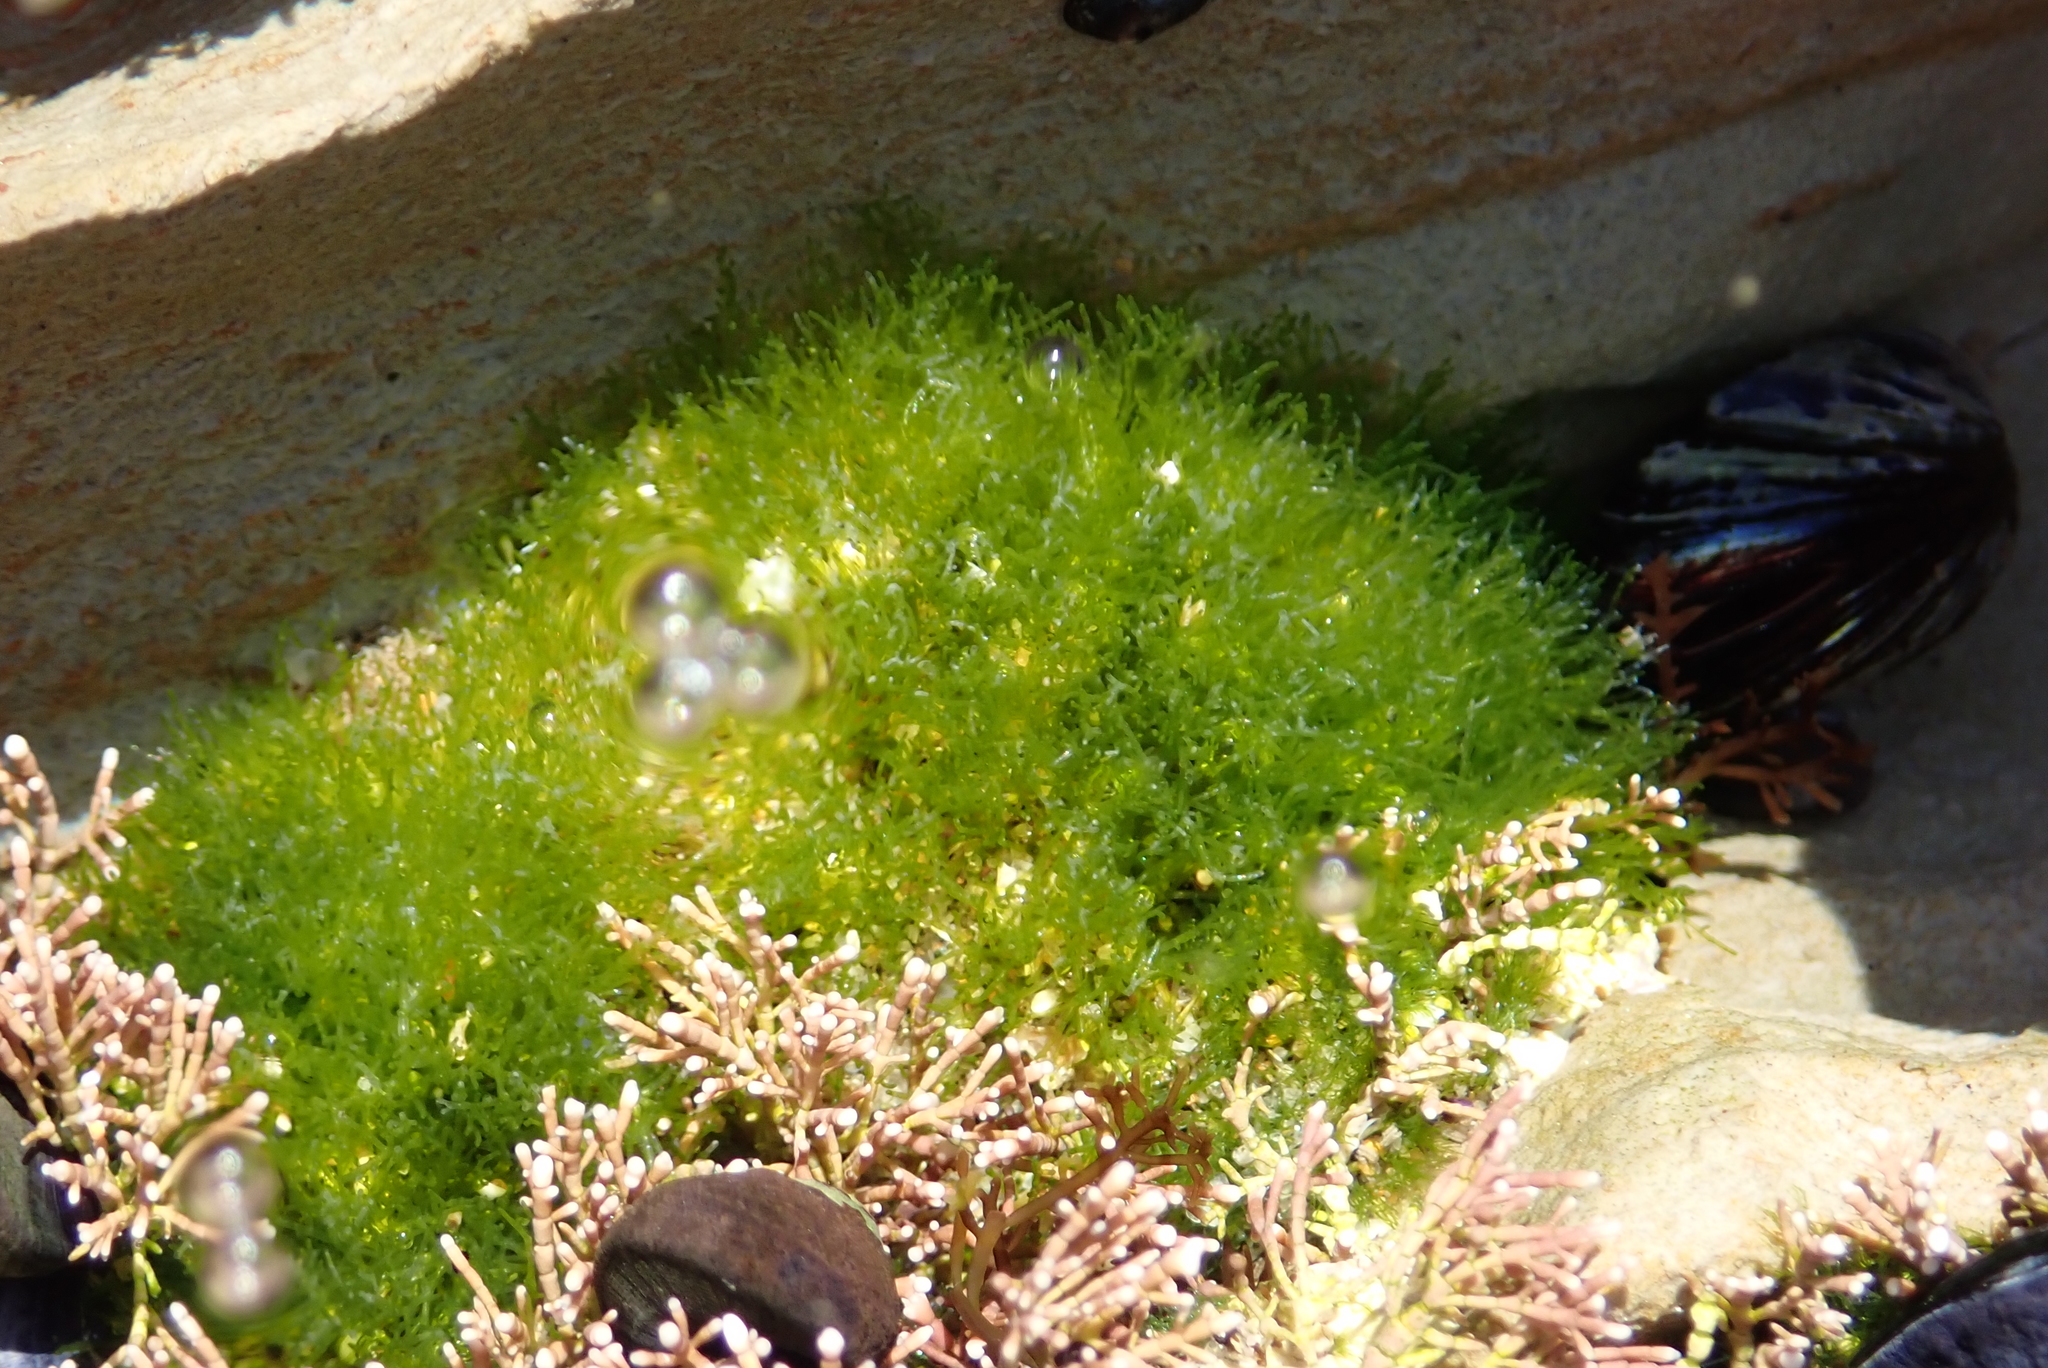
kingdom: Plantae
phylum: Chlorophyta
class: Ulvophyceae
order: Cladophorales
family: Cladophoraceae
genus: Cladophora
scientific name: Cladophora columbiana
